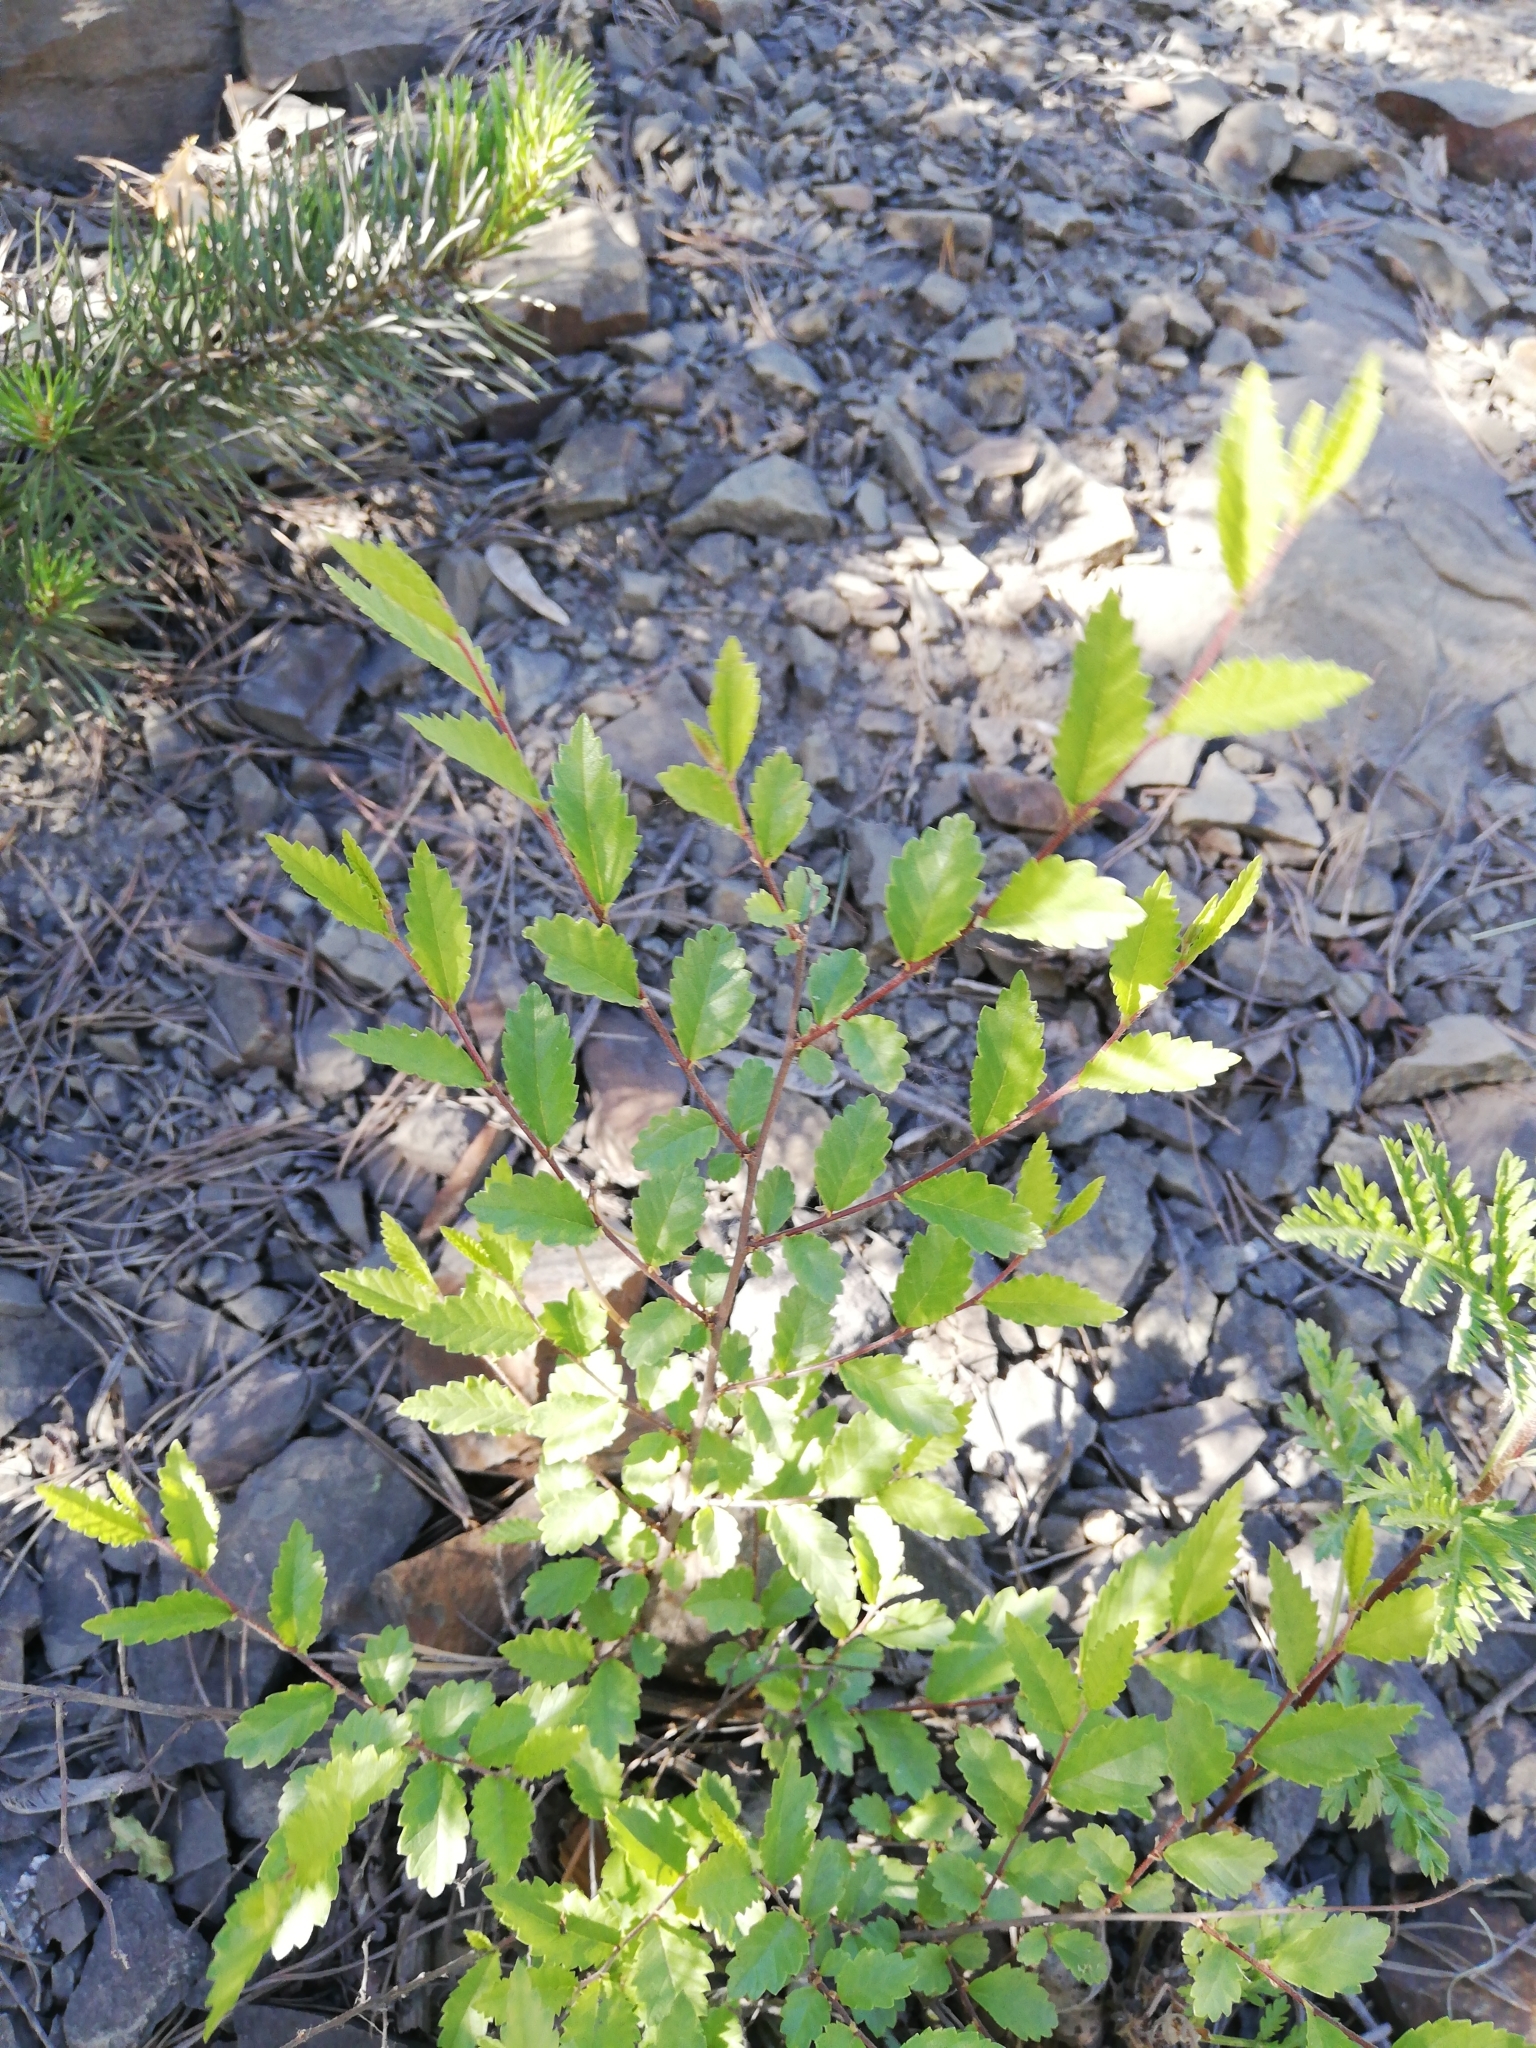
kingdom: Plantae
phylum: Tracheophyta
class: Magnoliopsida
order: Rosales
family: Ulmaceae
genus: Ulmus
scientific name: Ulmus pumila
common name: Siberian elm
